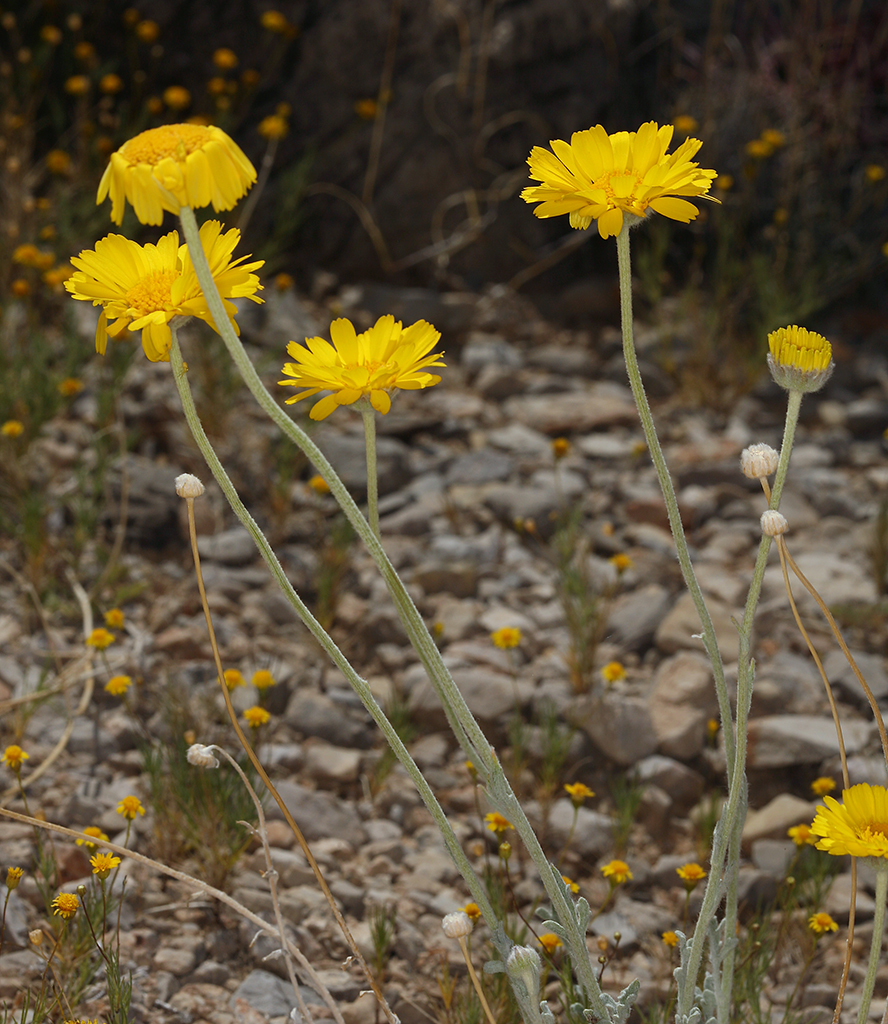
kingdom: Plantae
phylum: Tracheophyta
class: Magnoliopsida
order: Asterales
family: Asteraceae
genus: Baileya
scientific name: Baileya multiradiata
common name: Desert-marigold
